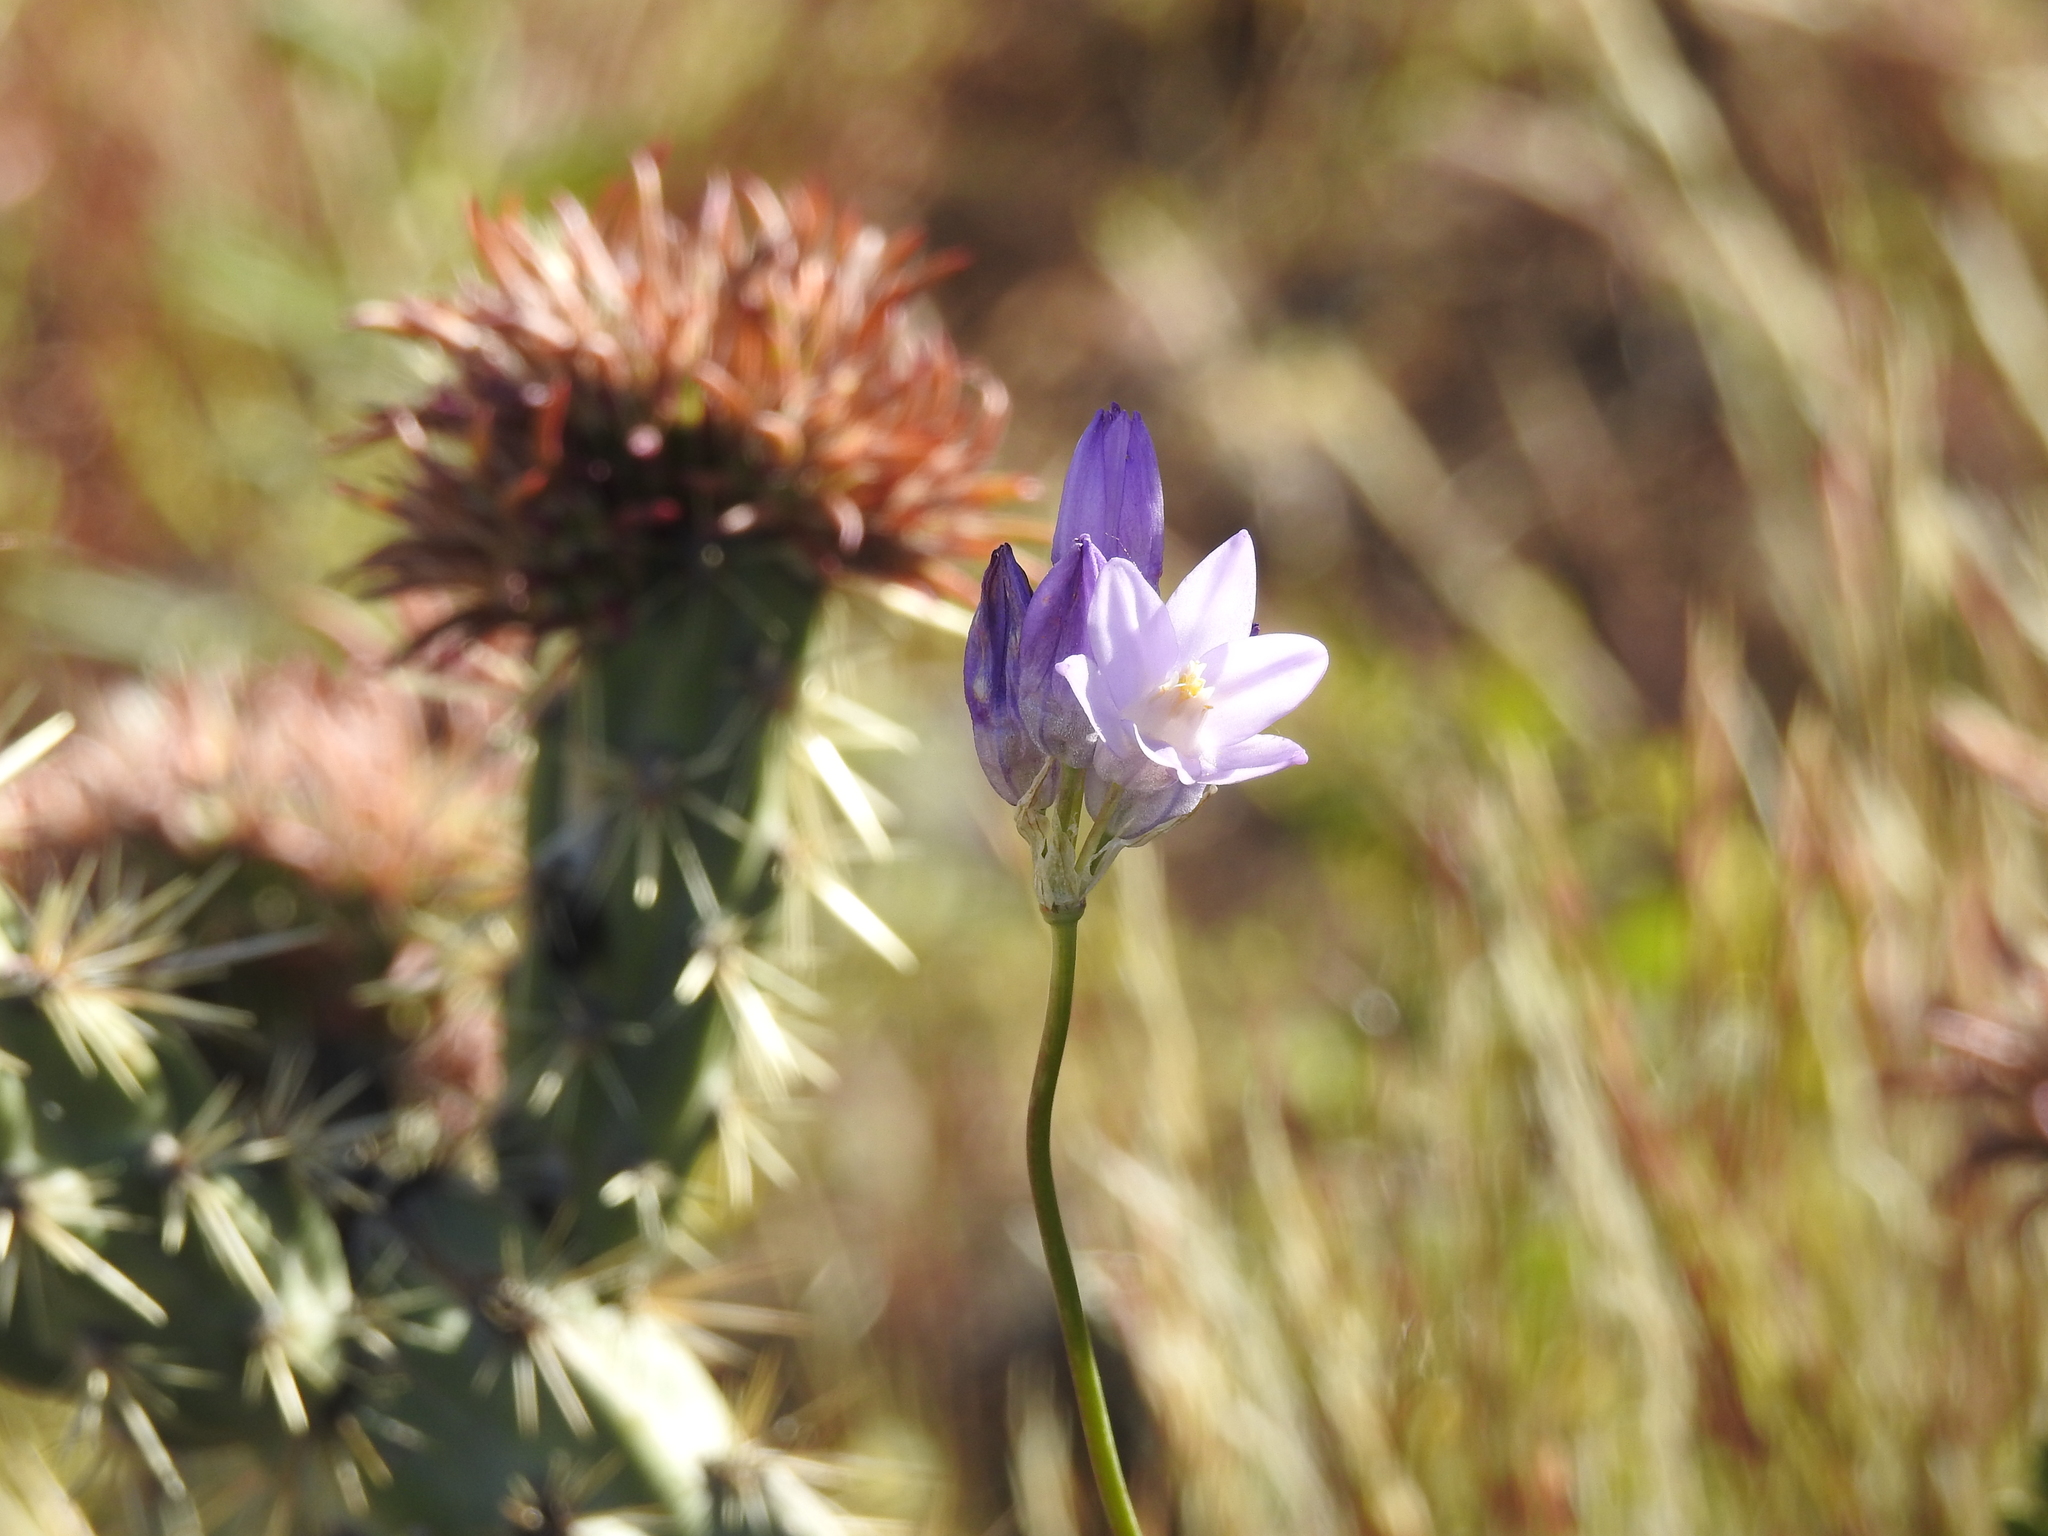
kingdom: Plantae
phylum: Tracheophyta
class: Liliopsida
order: Asparagales
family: Asparagaceae
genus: Dipterostemon
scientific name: Dipterostemon capitatus
